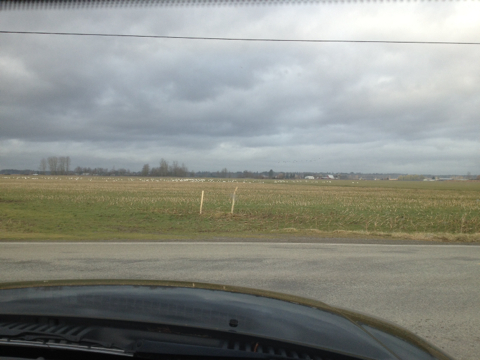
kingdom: Animalia
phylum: Chordata
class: Aves
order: Anseriformes
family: Anatidae
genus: Cygnus
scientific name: Cygnus columbianus
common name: Tundra swan
